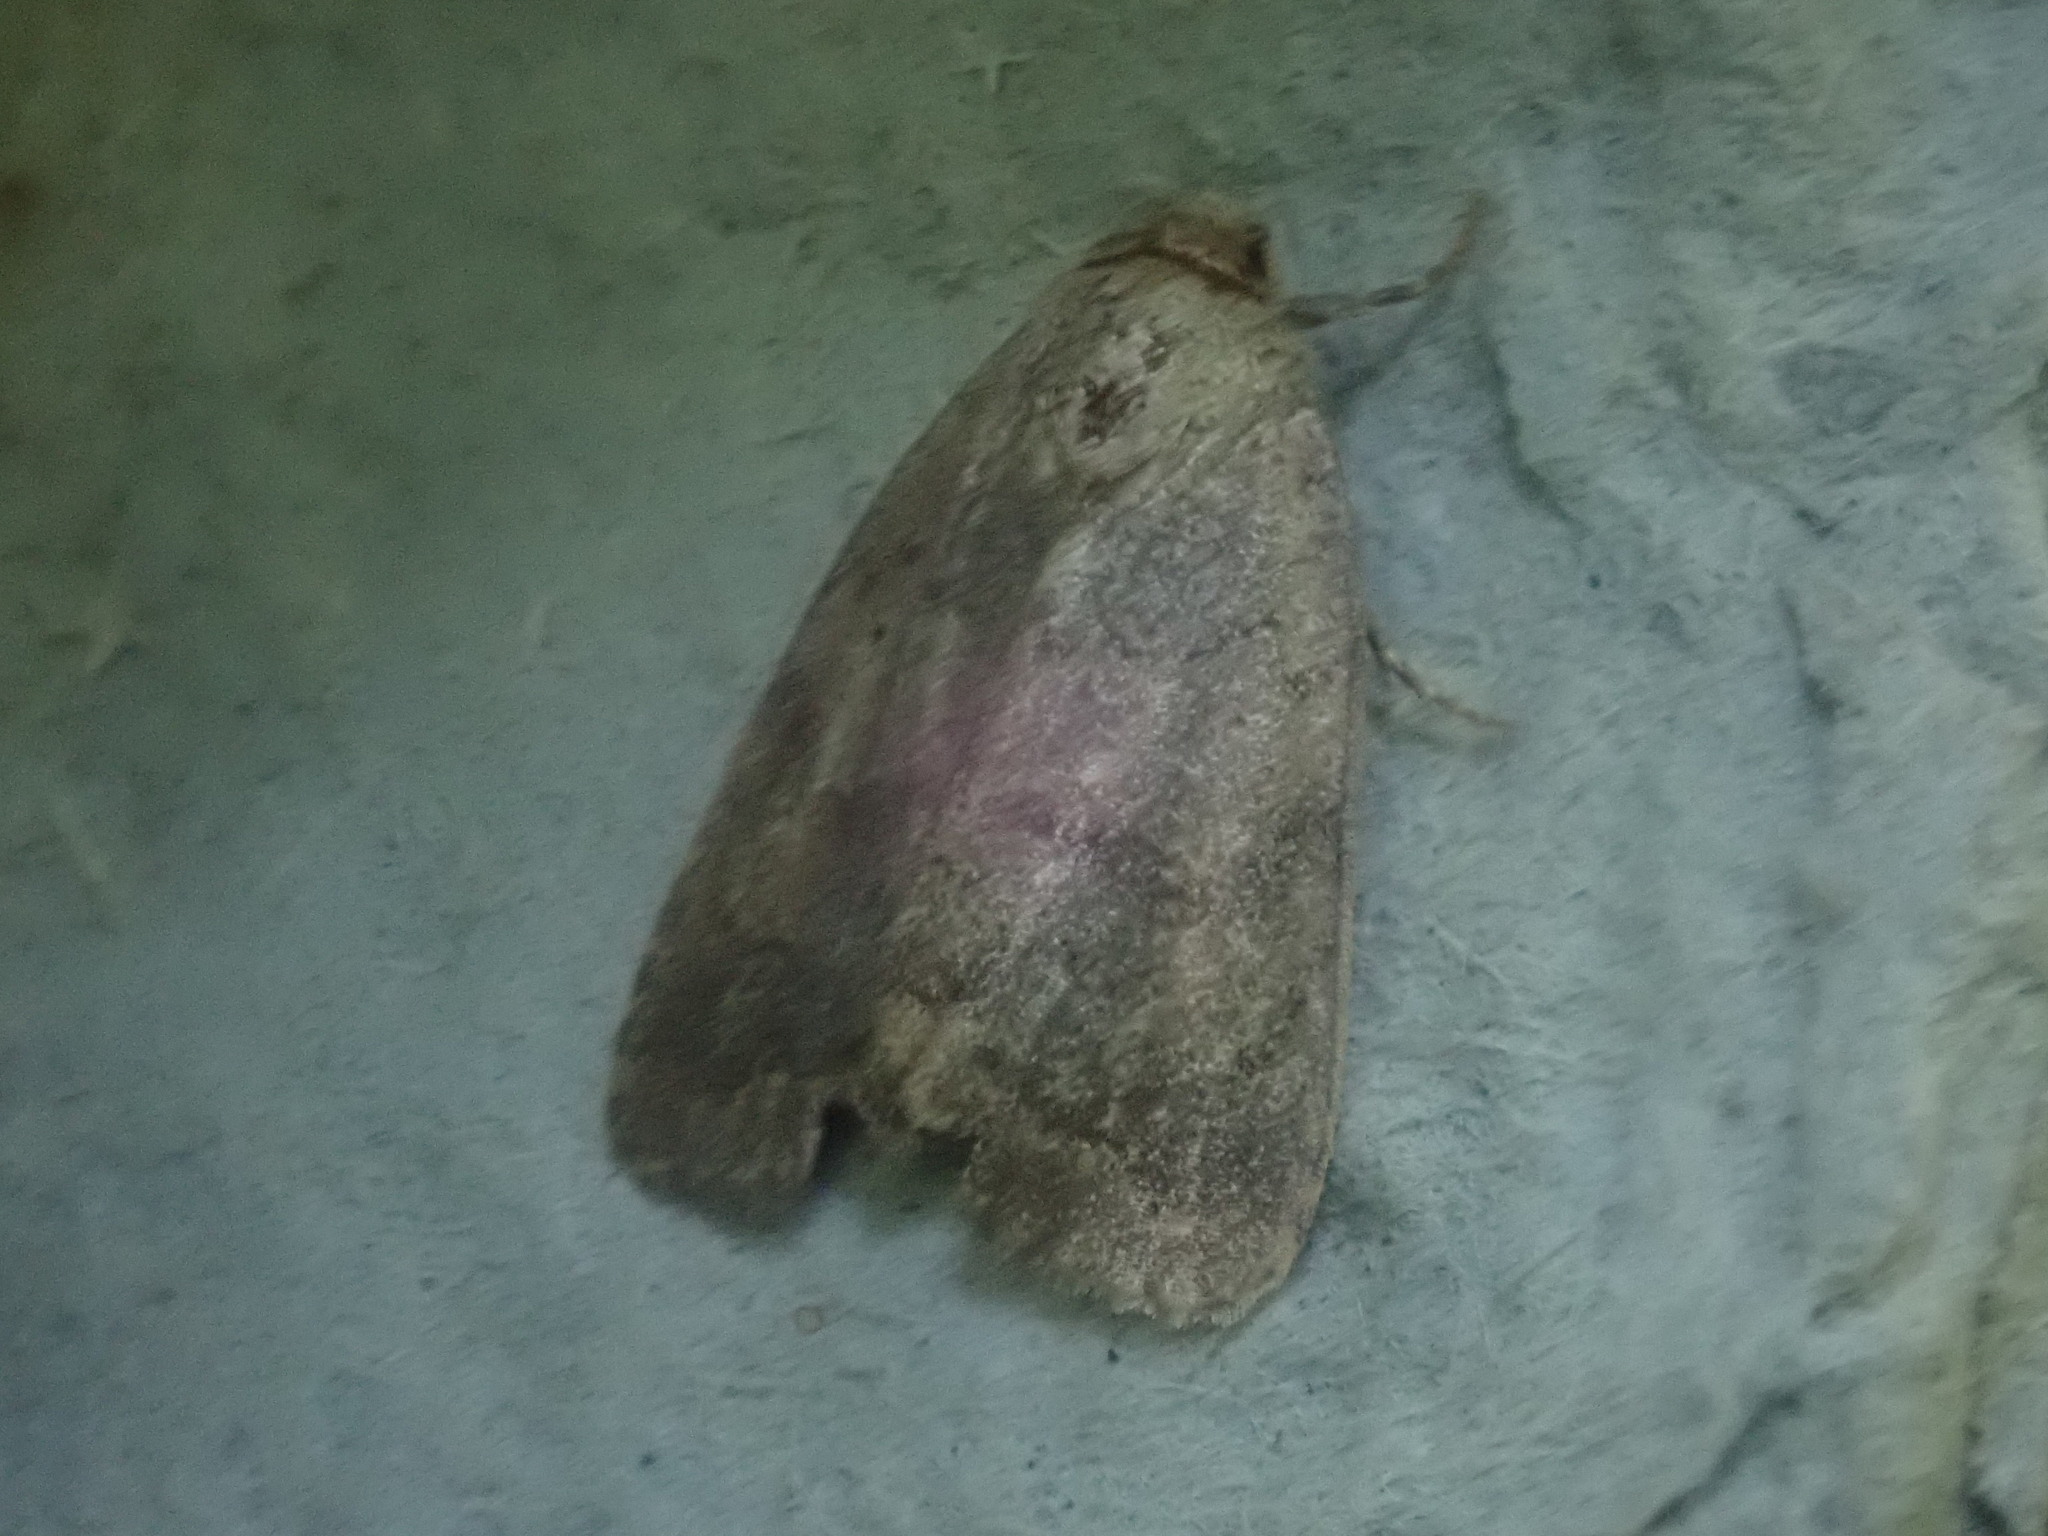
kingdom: Animalia
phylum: Arthropoda
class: Insecta
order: Lepidoptera
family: Noctuidae
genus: Athetis
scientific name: Athetis tarda
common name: Slowpoke moth
